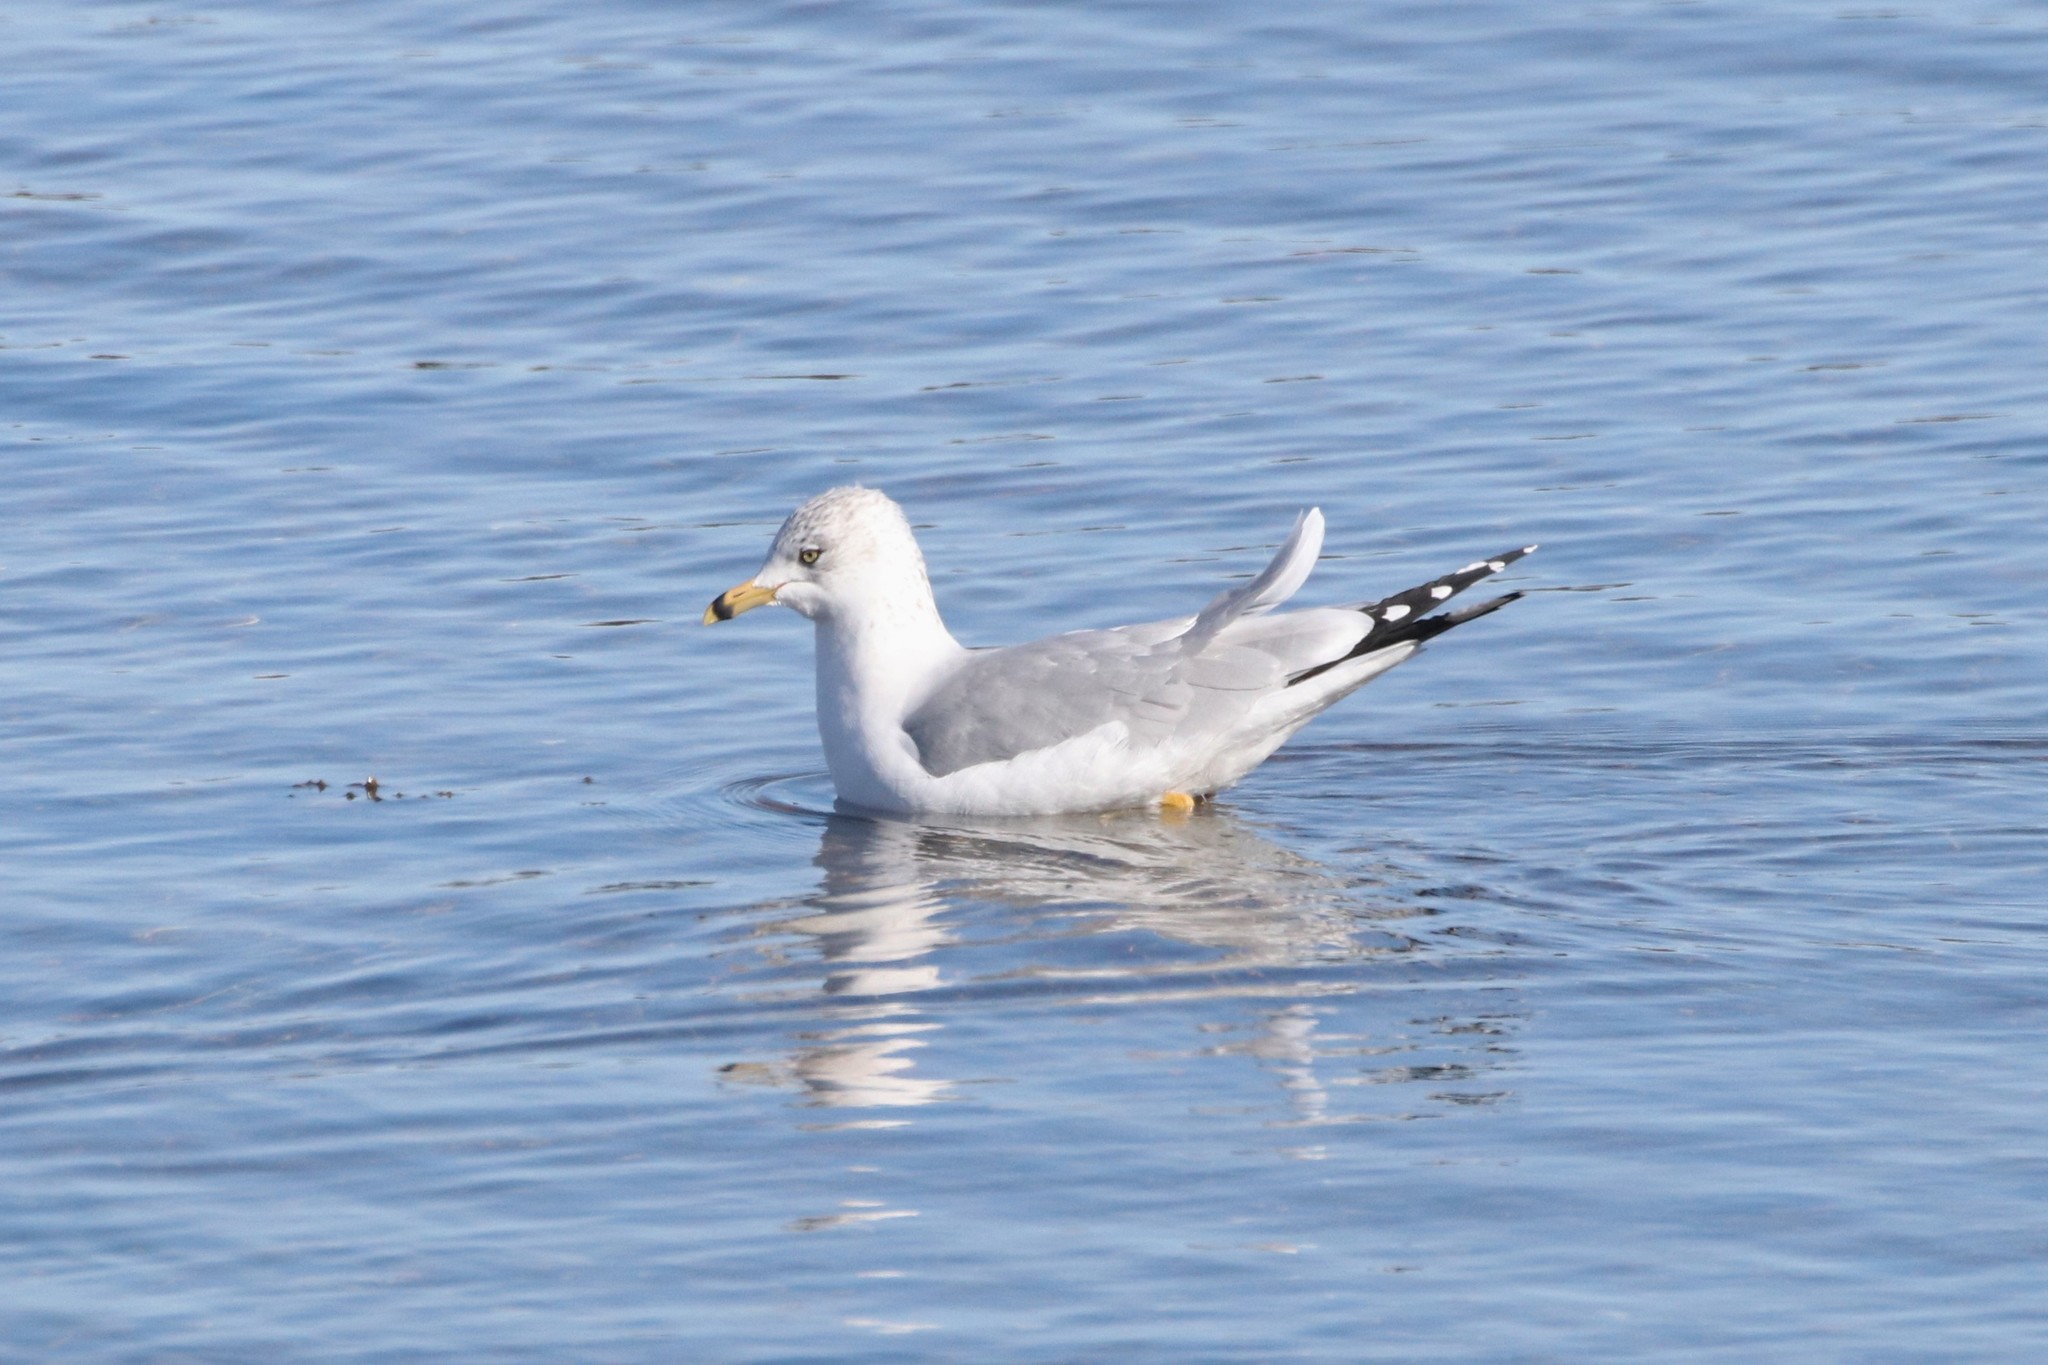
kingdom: Animalia
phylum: Chordata
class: Aves
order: Charadriiformes
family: Laridae
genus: Larus
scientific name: Larus delawarensis
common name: Ring-billed gull
